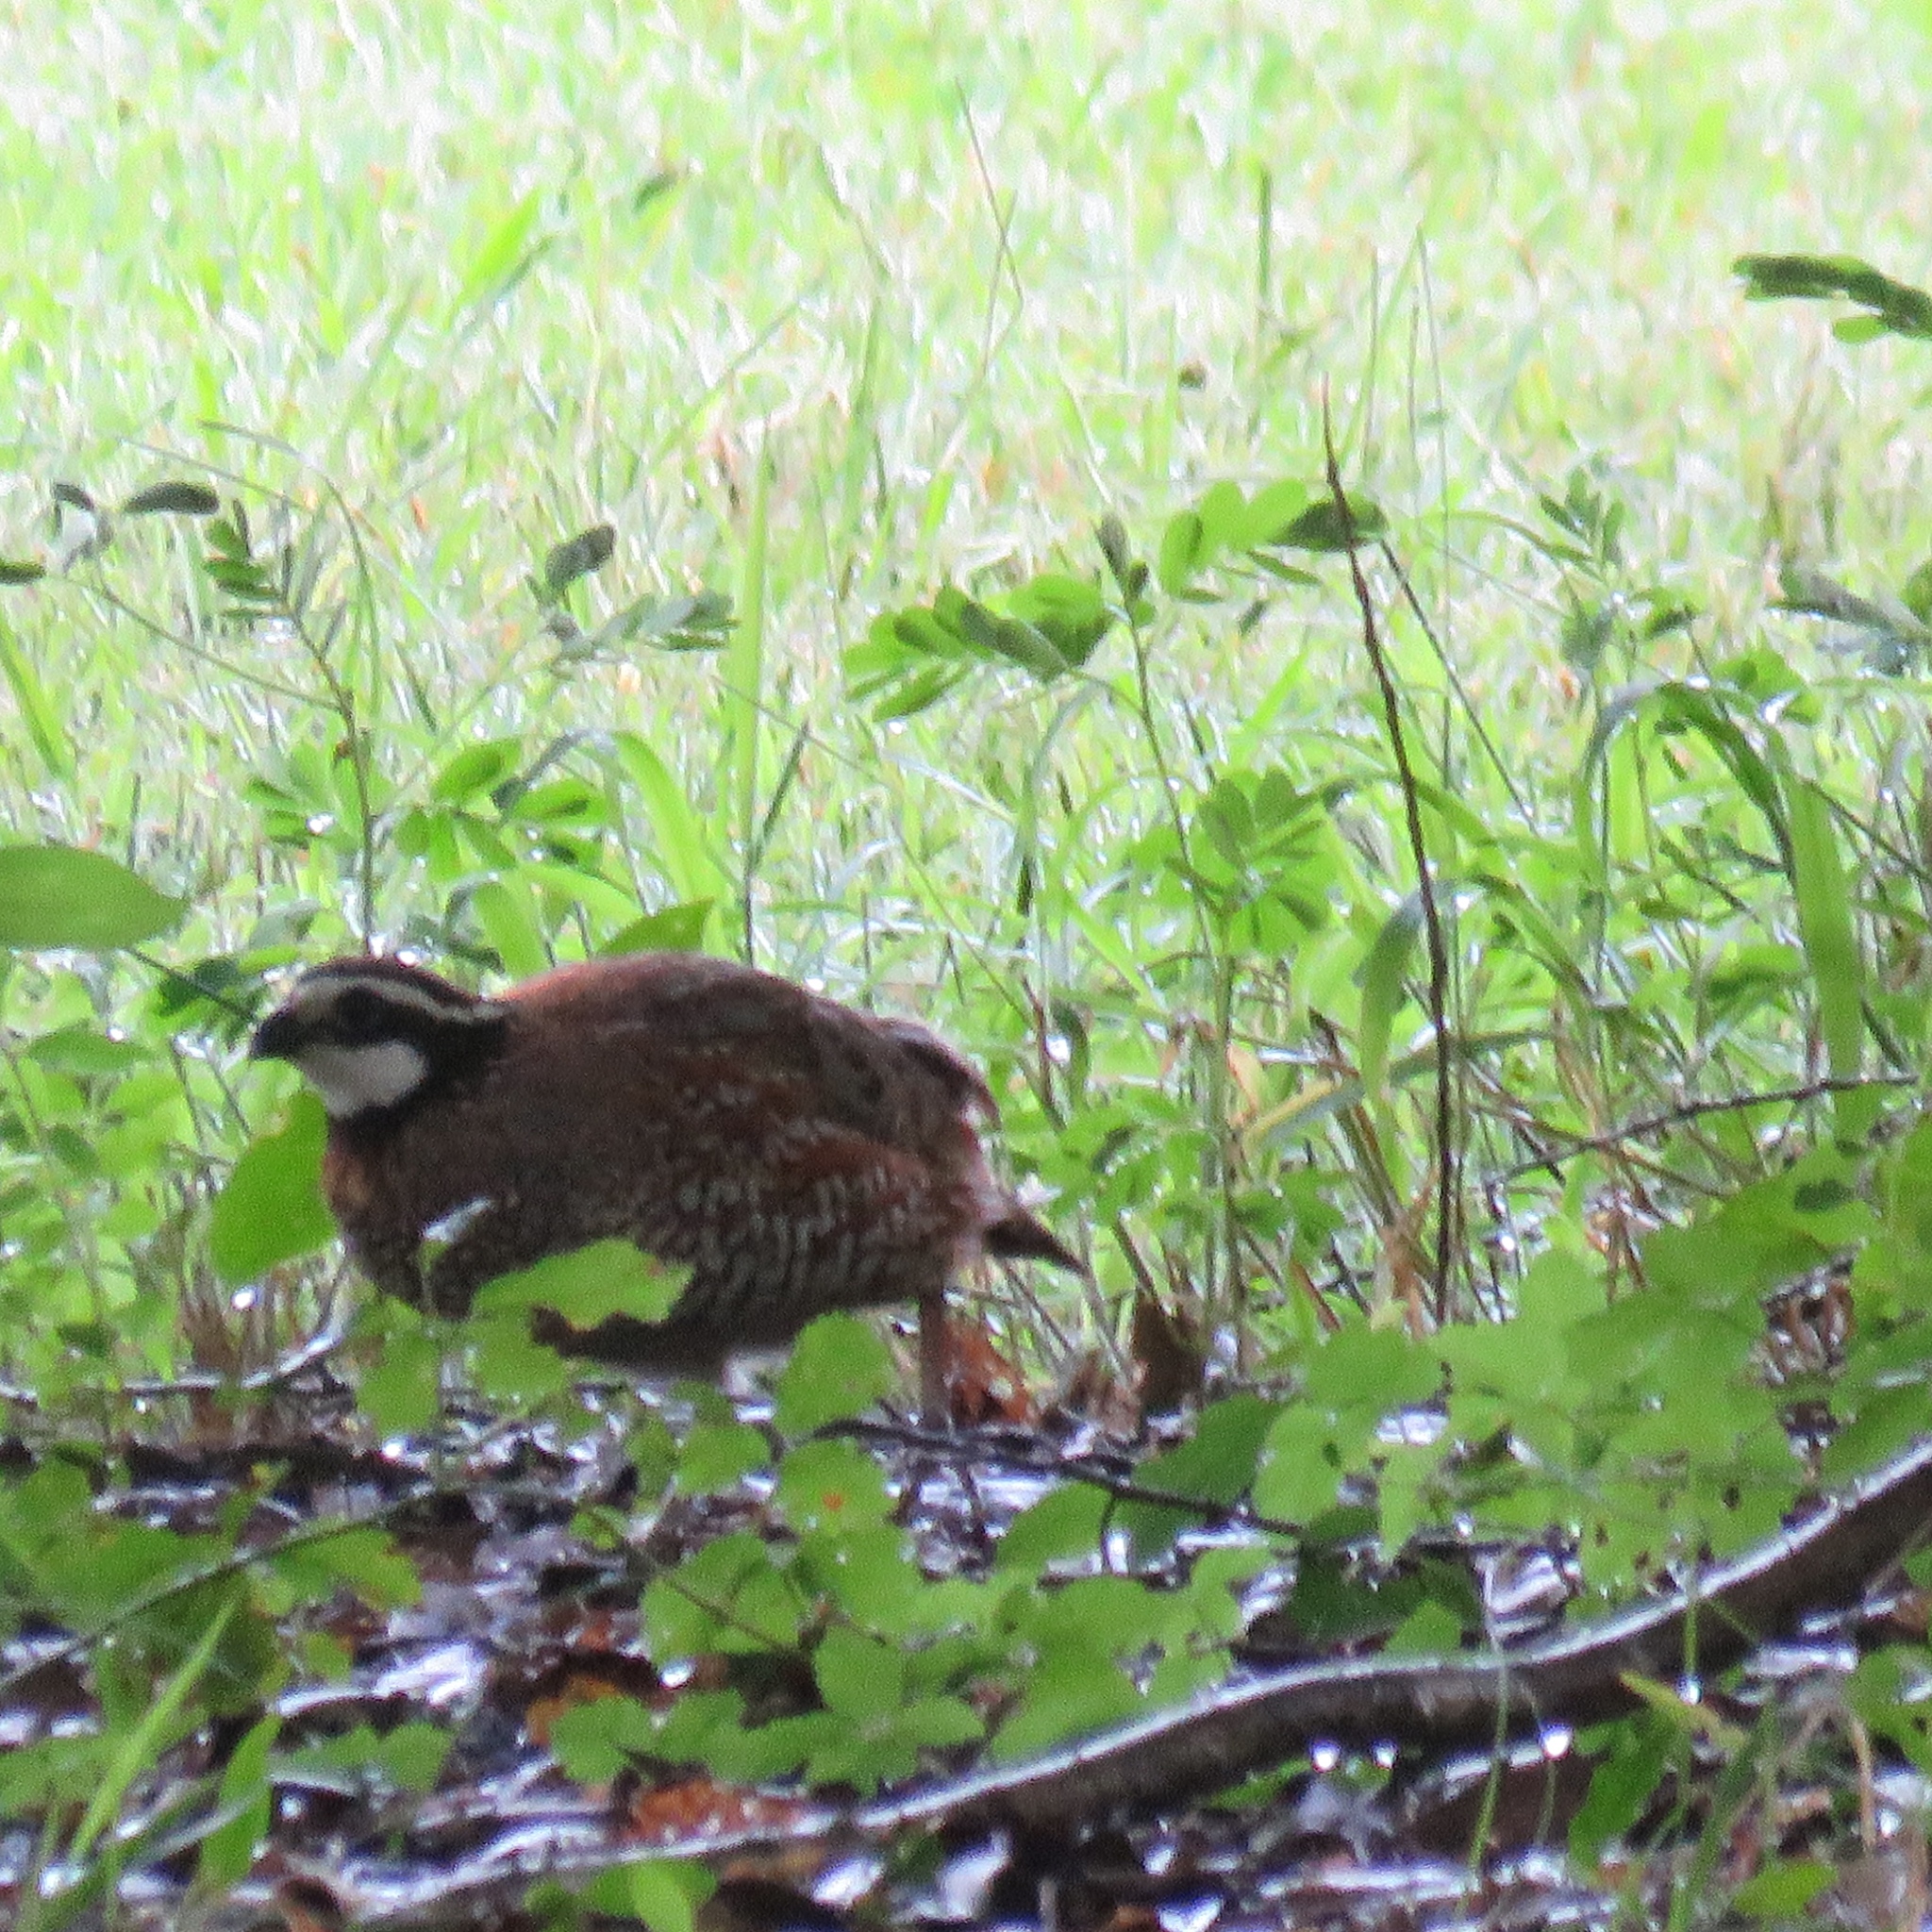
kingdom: Animalia
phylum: Chordata
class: Aves
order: Galliformes
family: Odontophoridae
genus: Colinus
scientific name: Colinus virginianus
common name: Northern bobwhite
